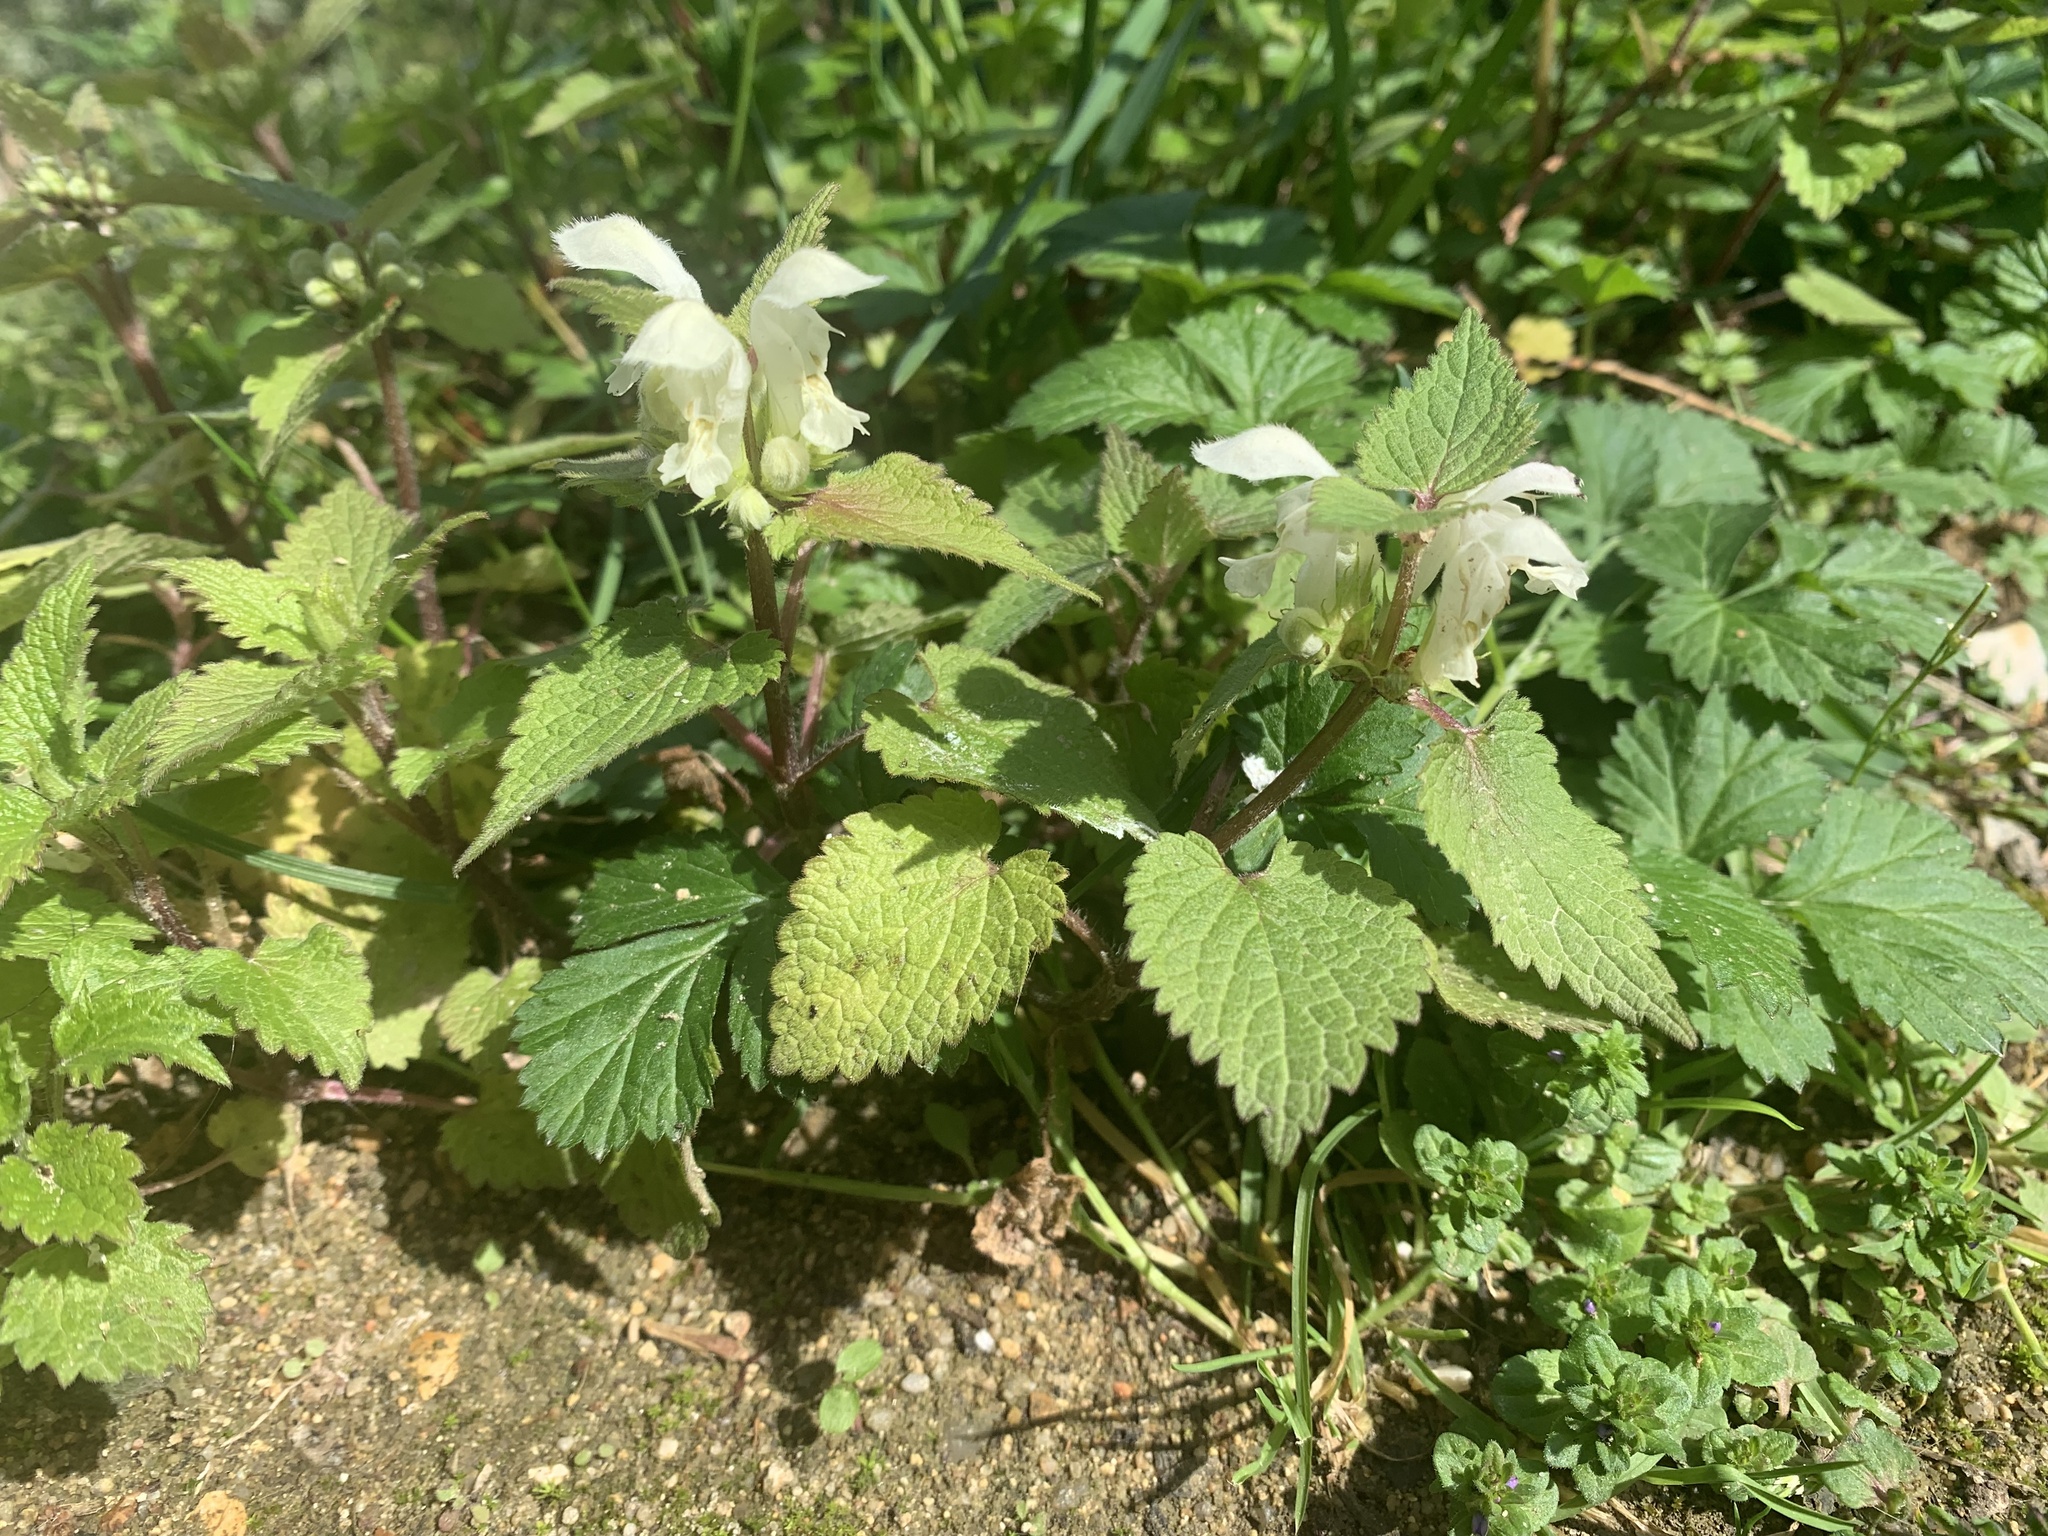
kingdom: Plantae
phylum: Tracheophyta
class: Magnoliopsida
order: Lamiales
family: Lamiaceae
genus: Lamium
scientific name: Lamium album
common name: White dead-nettle
